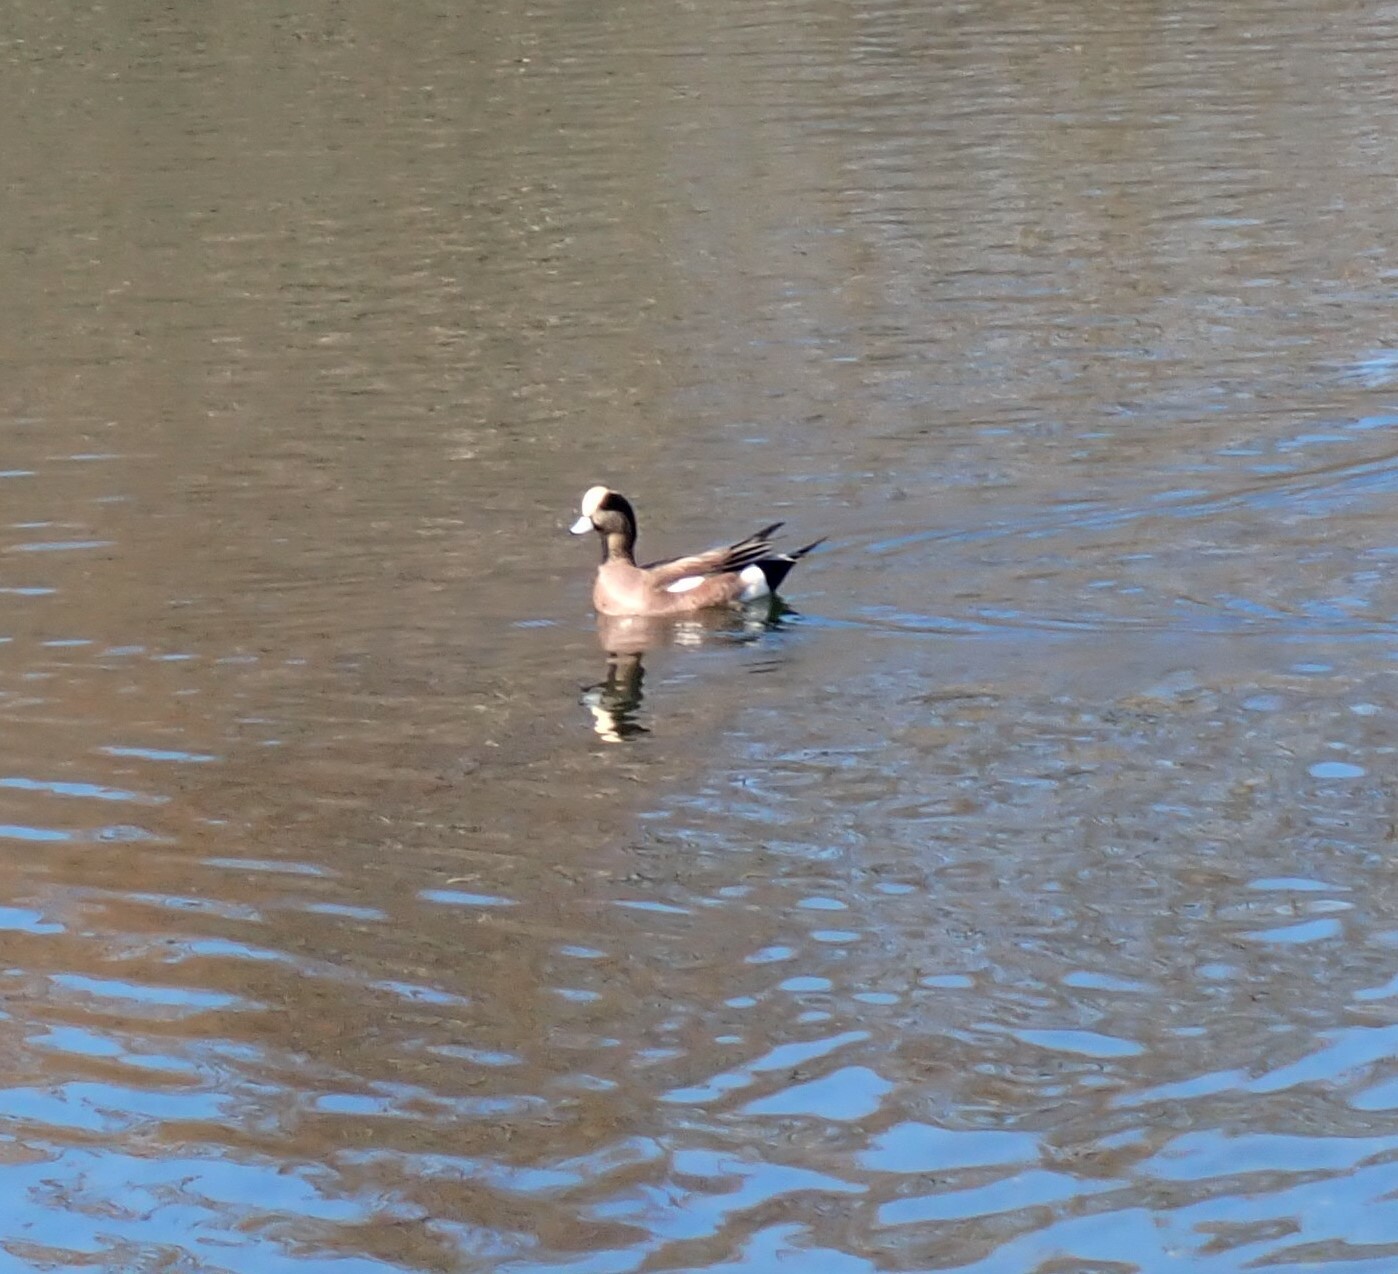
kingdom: Animalia
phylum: Chordata
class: Aves
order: Anseriformes
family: Anatidae
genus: Mareca
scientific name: Mareca americana
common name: American wigeon
